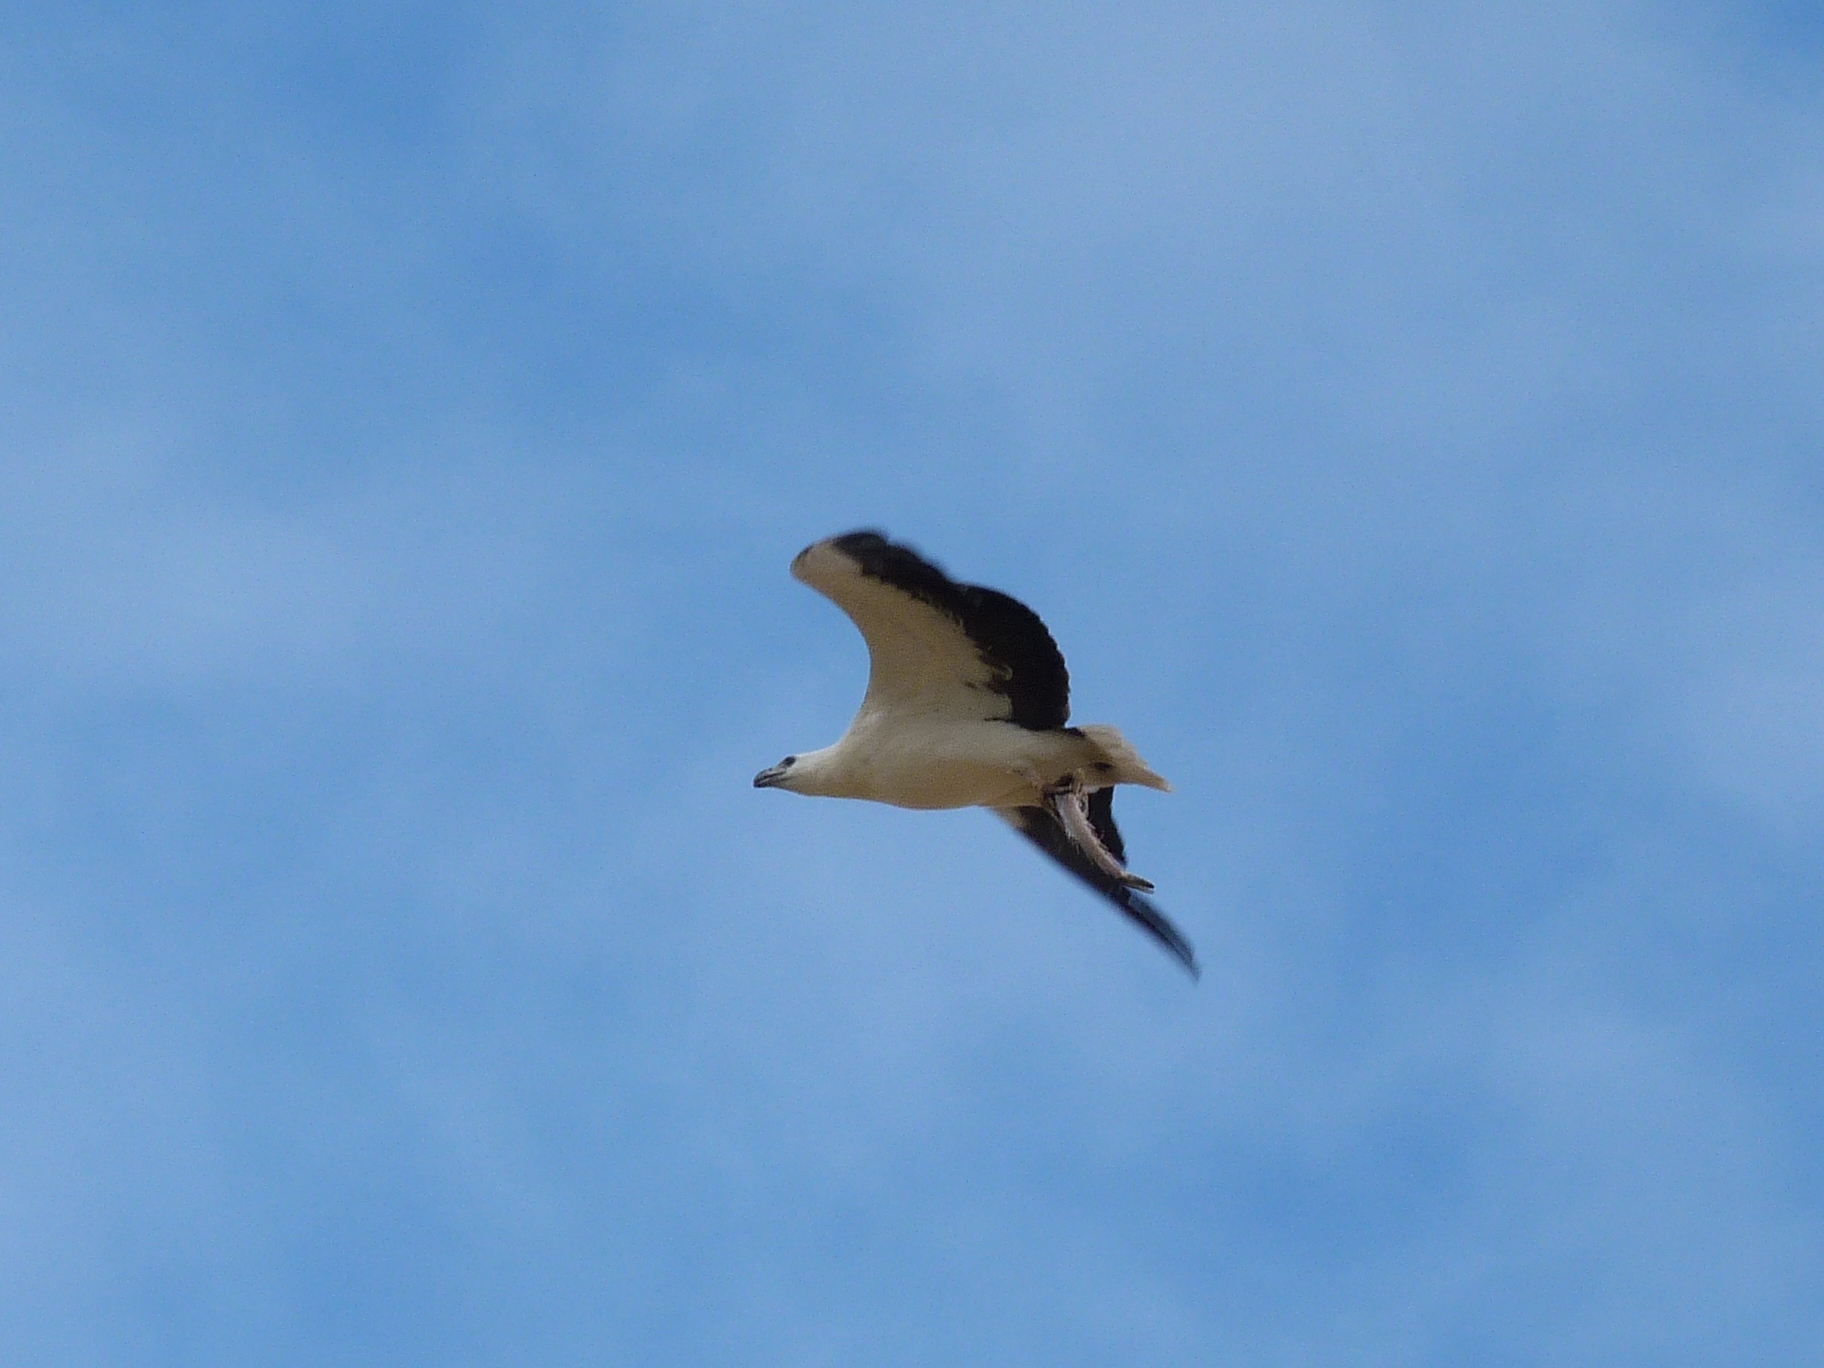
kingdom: Animalia
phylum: Chordata
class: Aves
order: Accipitriformes
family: Accipitridae
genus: Haliaeetus
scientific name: Haliaeetus leucogaster
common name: White-bellied sea eagle
